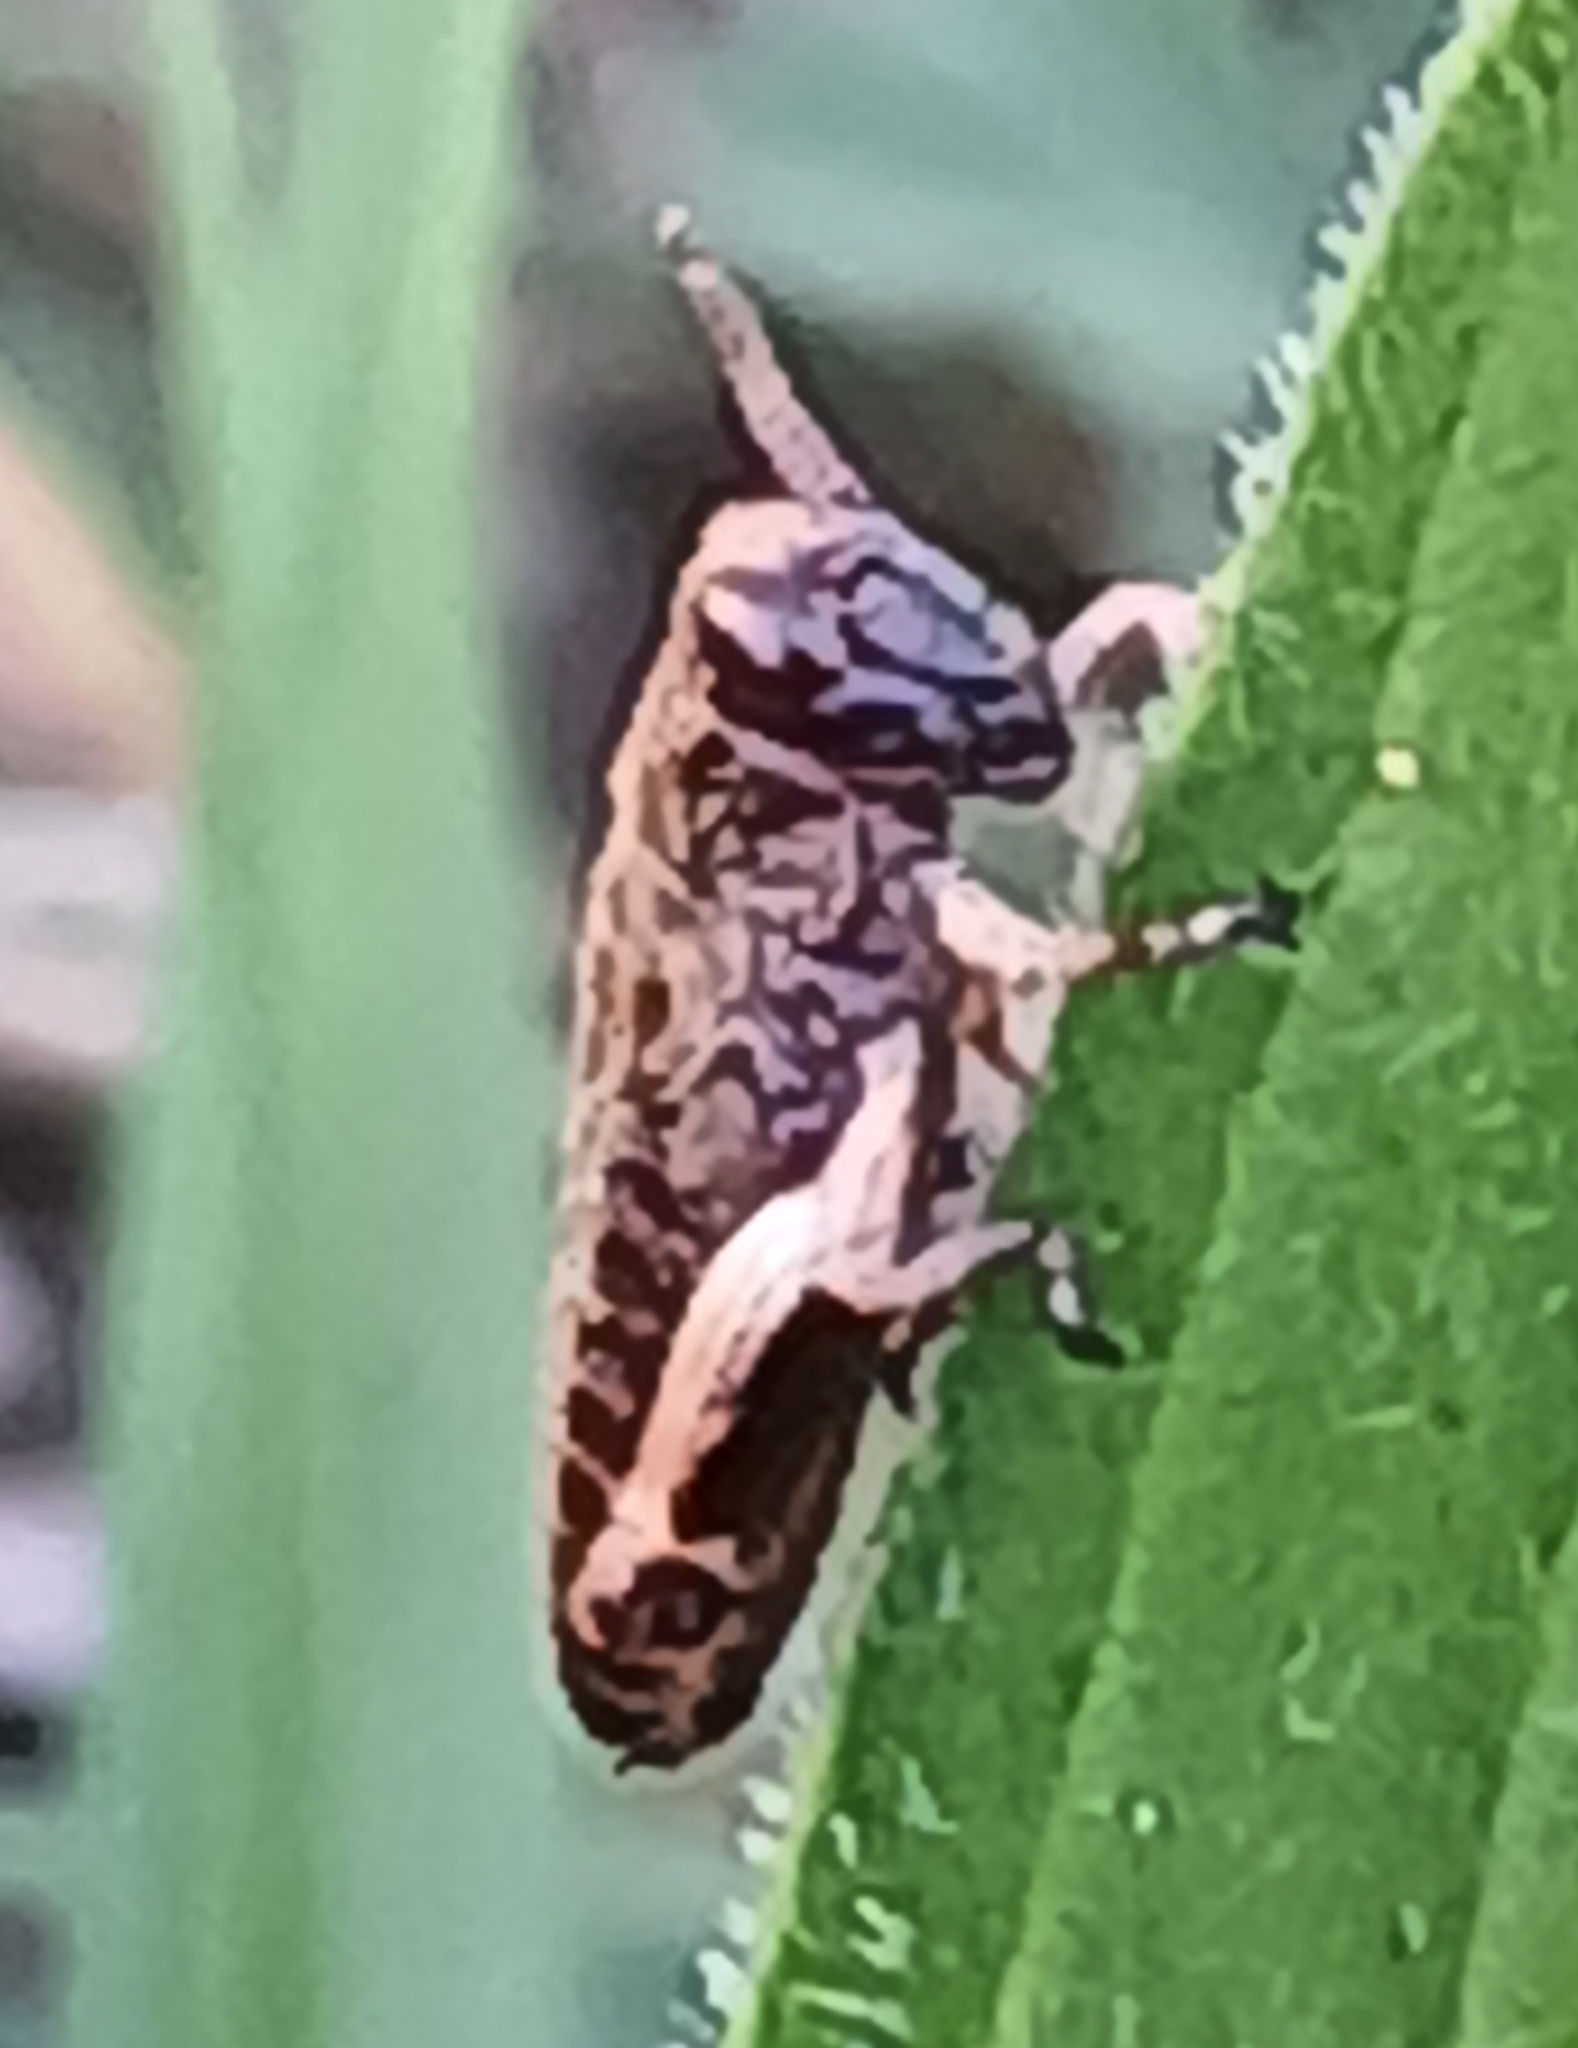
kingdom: Animalia
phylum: Arthropoda
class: Insecta
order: Orthoptera
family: Acrididae
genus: Miramella
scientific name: Miramella alpina
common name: Green mountain grasshopper
